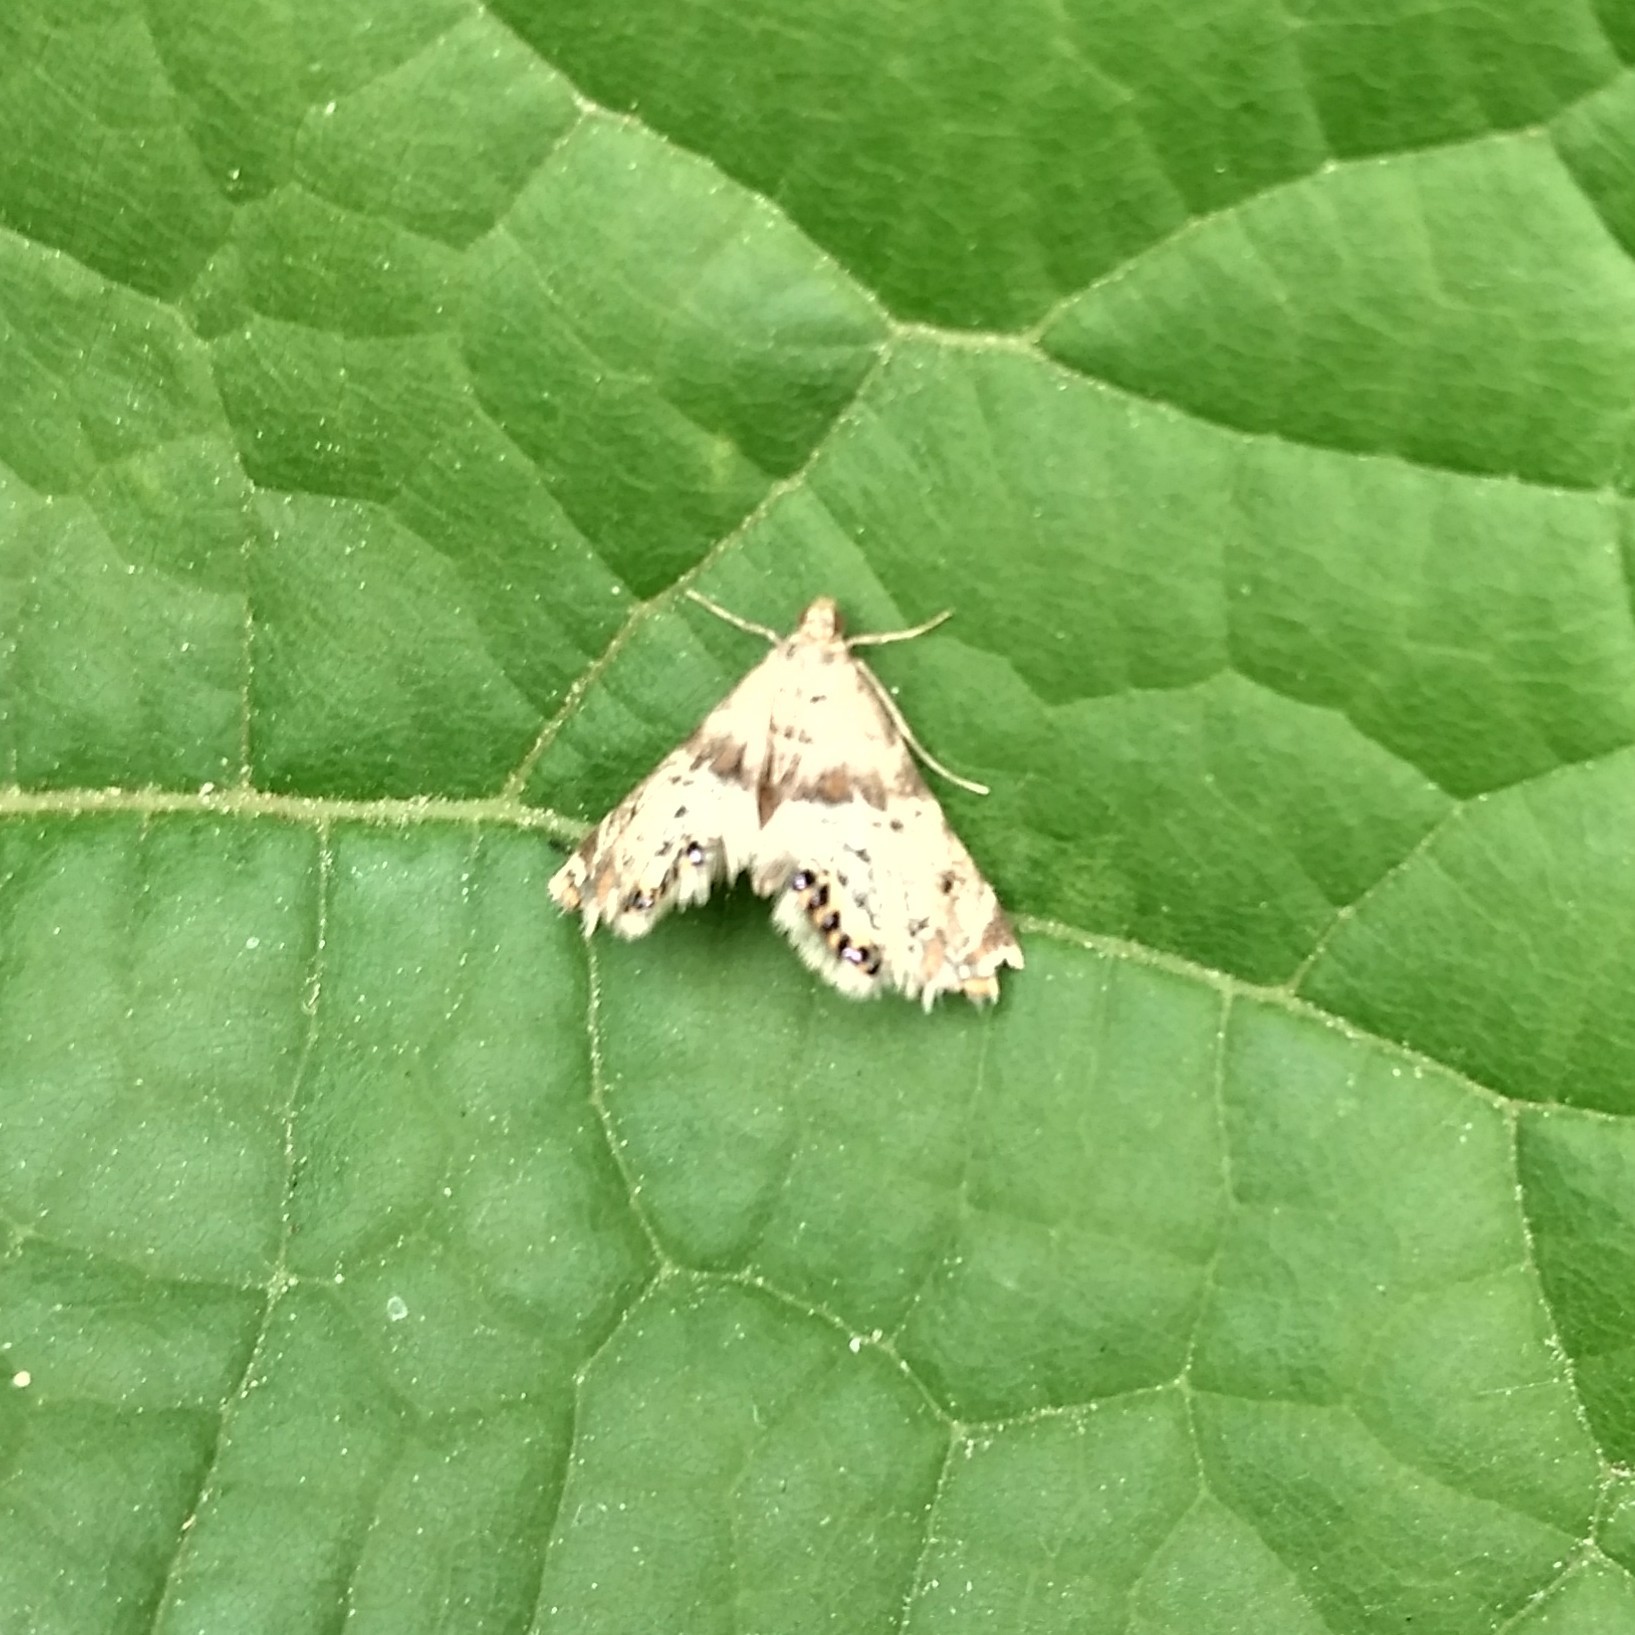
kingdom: Animalia
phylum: Arthropoda
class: Insecta
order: Lepidoptera
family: Crambidae
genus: Petrophila
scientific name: Petrophila fulicalis
